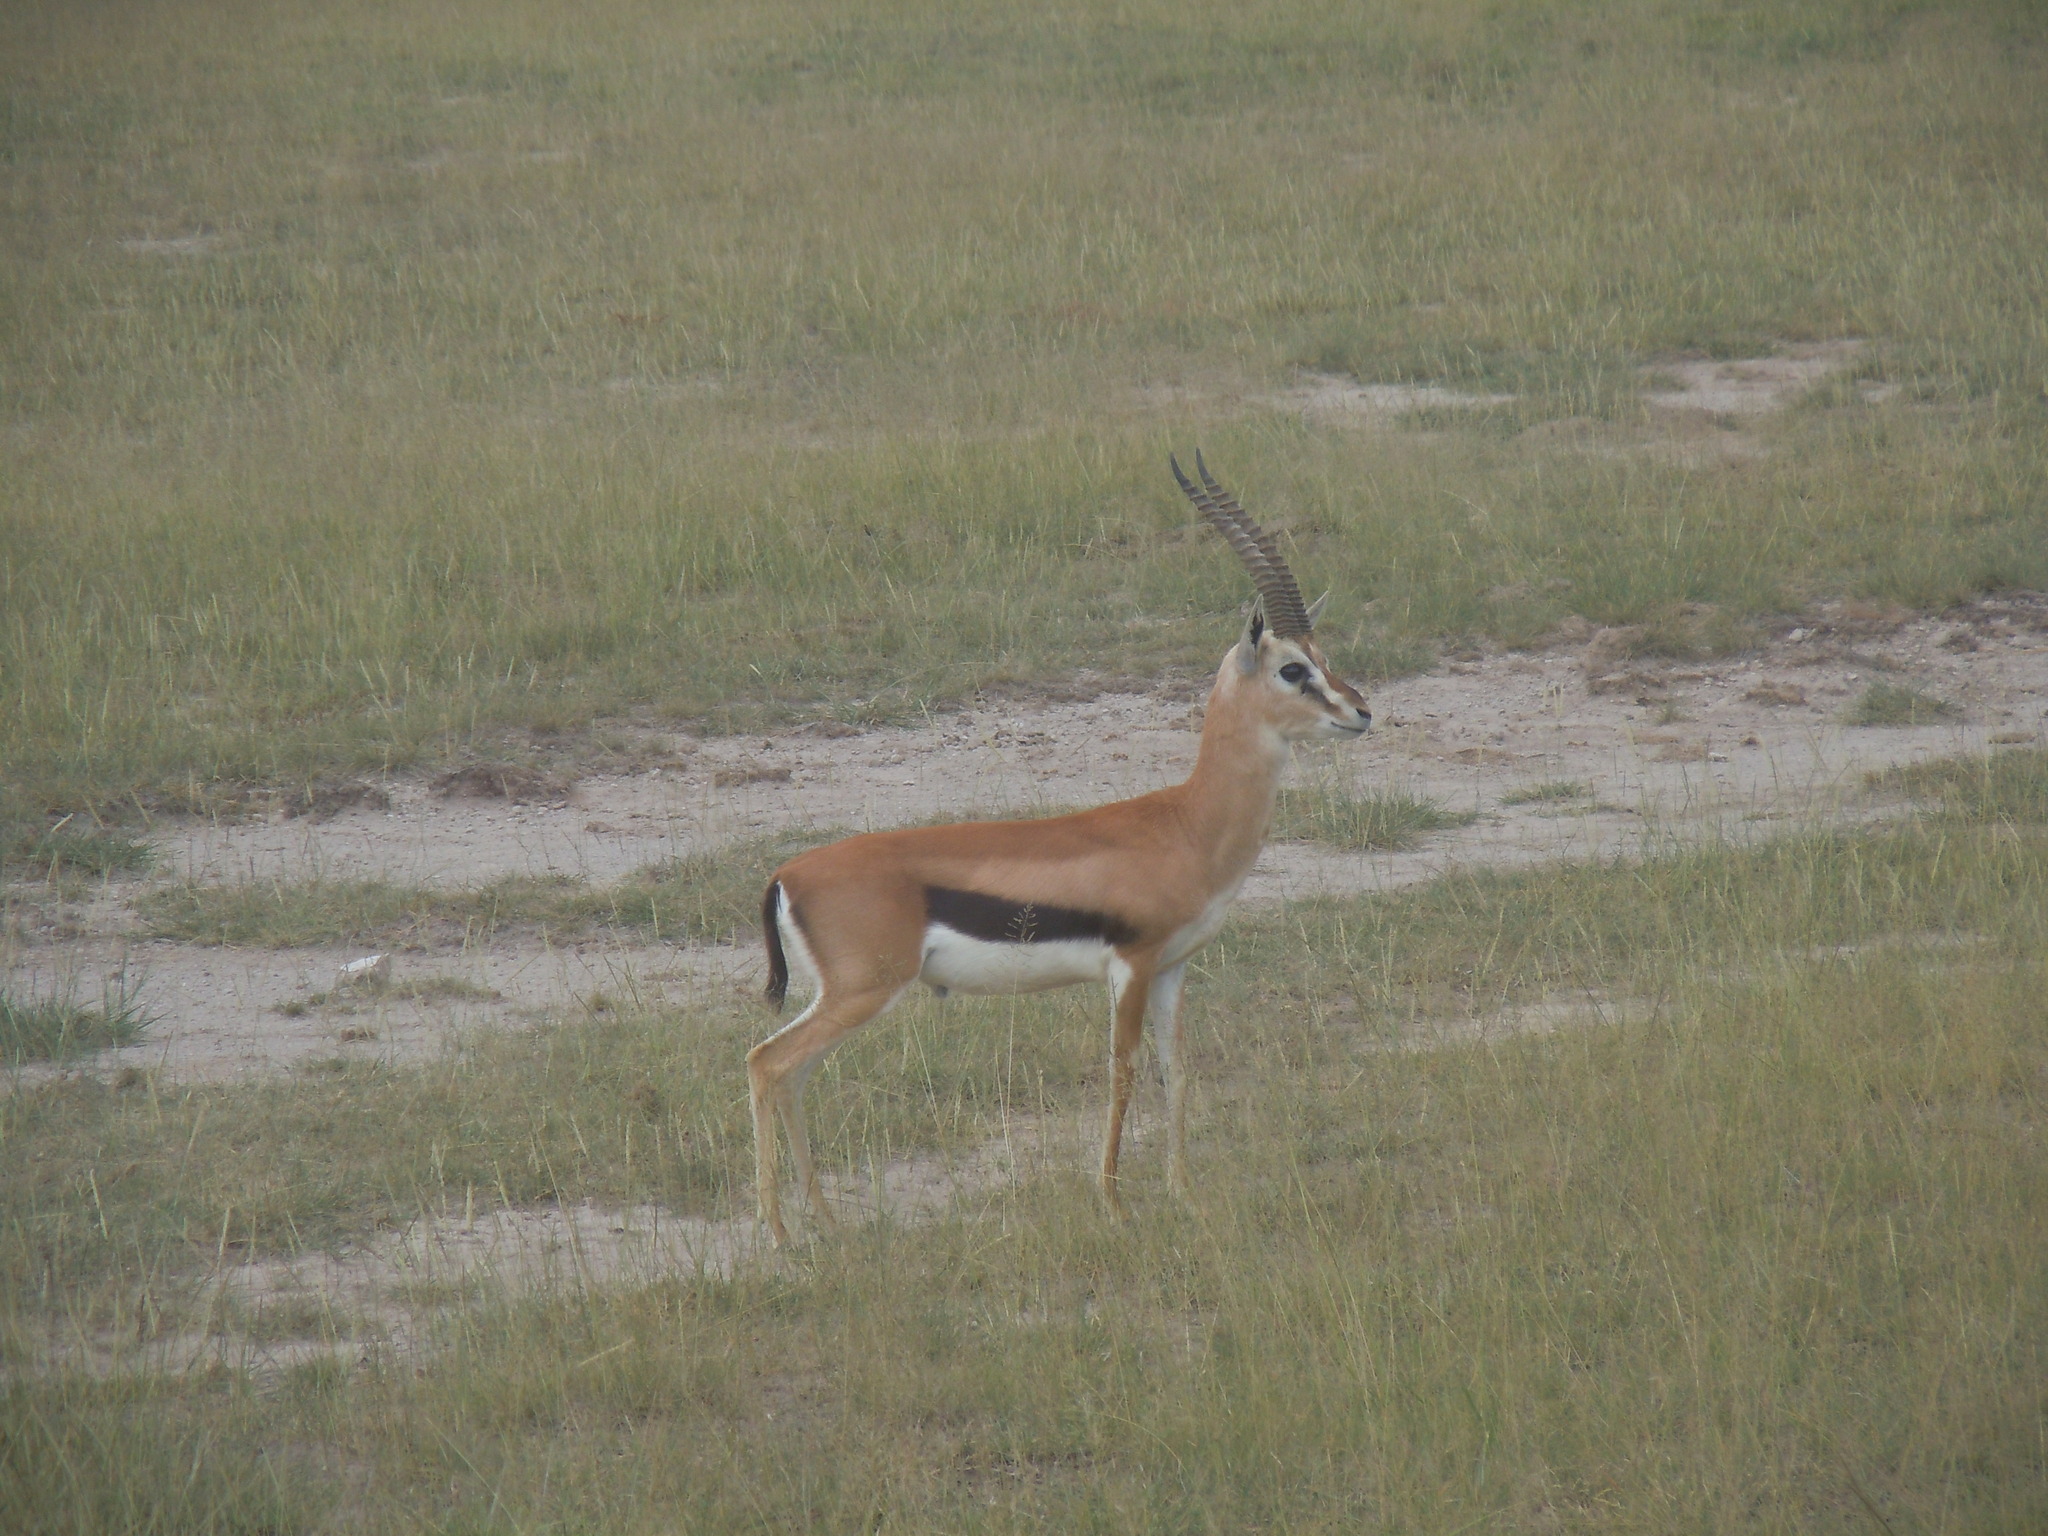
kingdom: Animalia
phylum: Chordata
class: Mammalia
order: Artiodactyla
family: Bovidae
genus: Eudorcas
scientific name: Eudorcas thomsonii
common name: Thomson's gazelle
